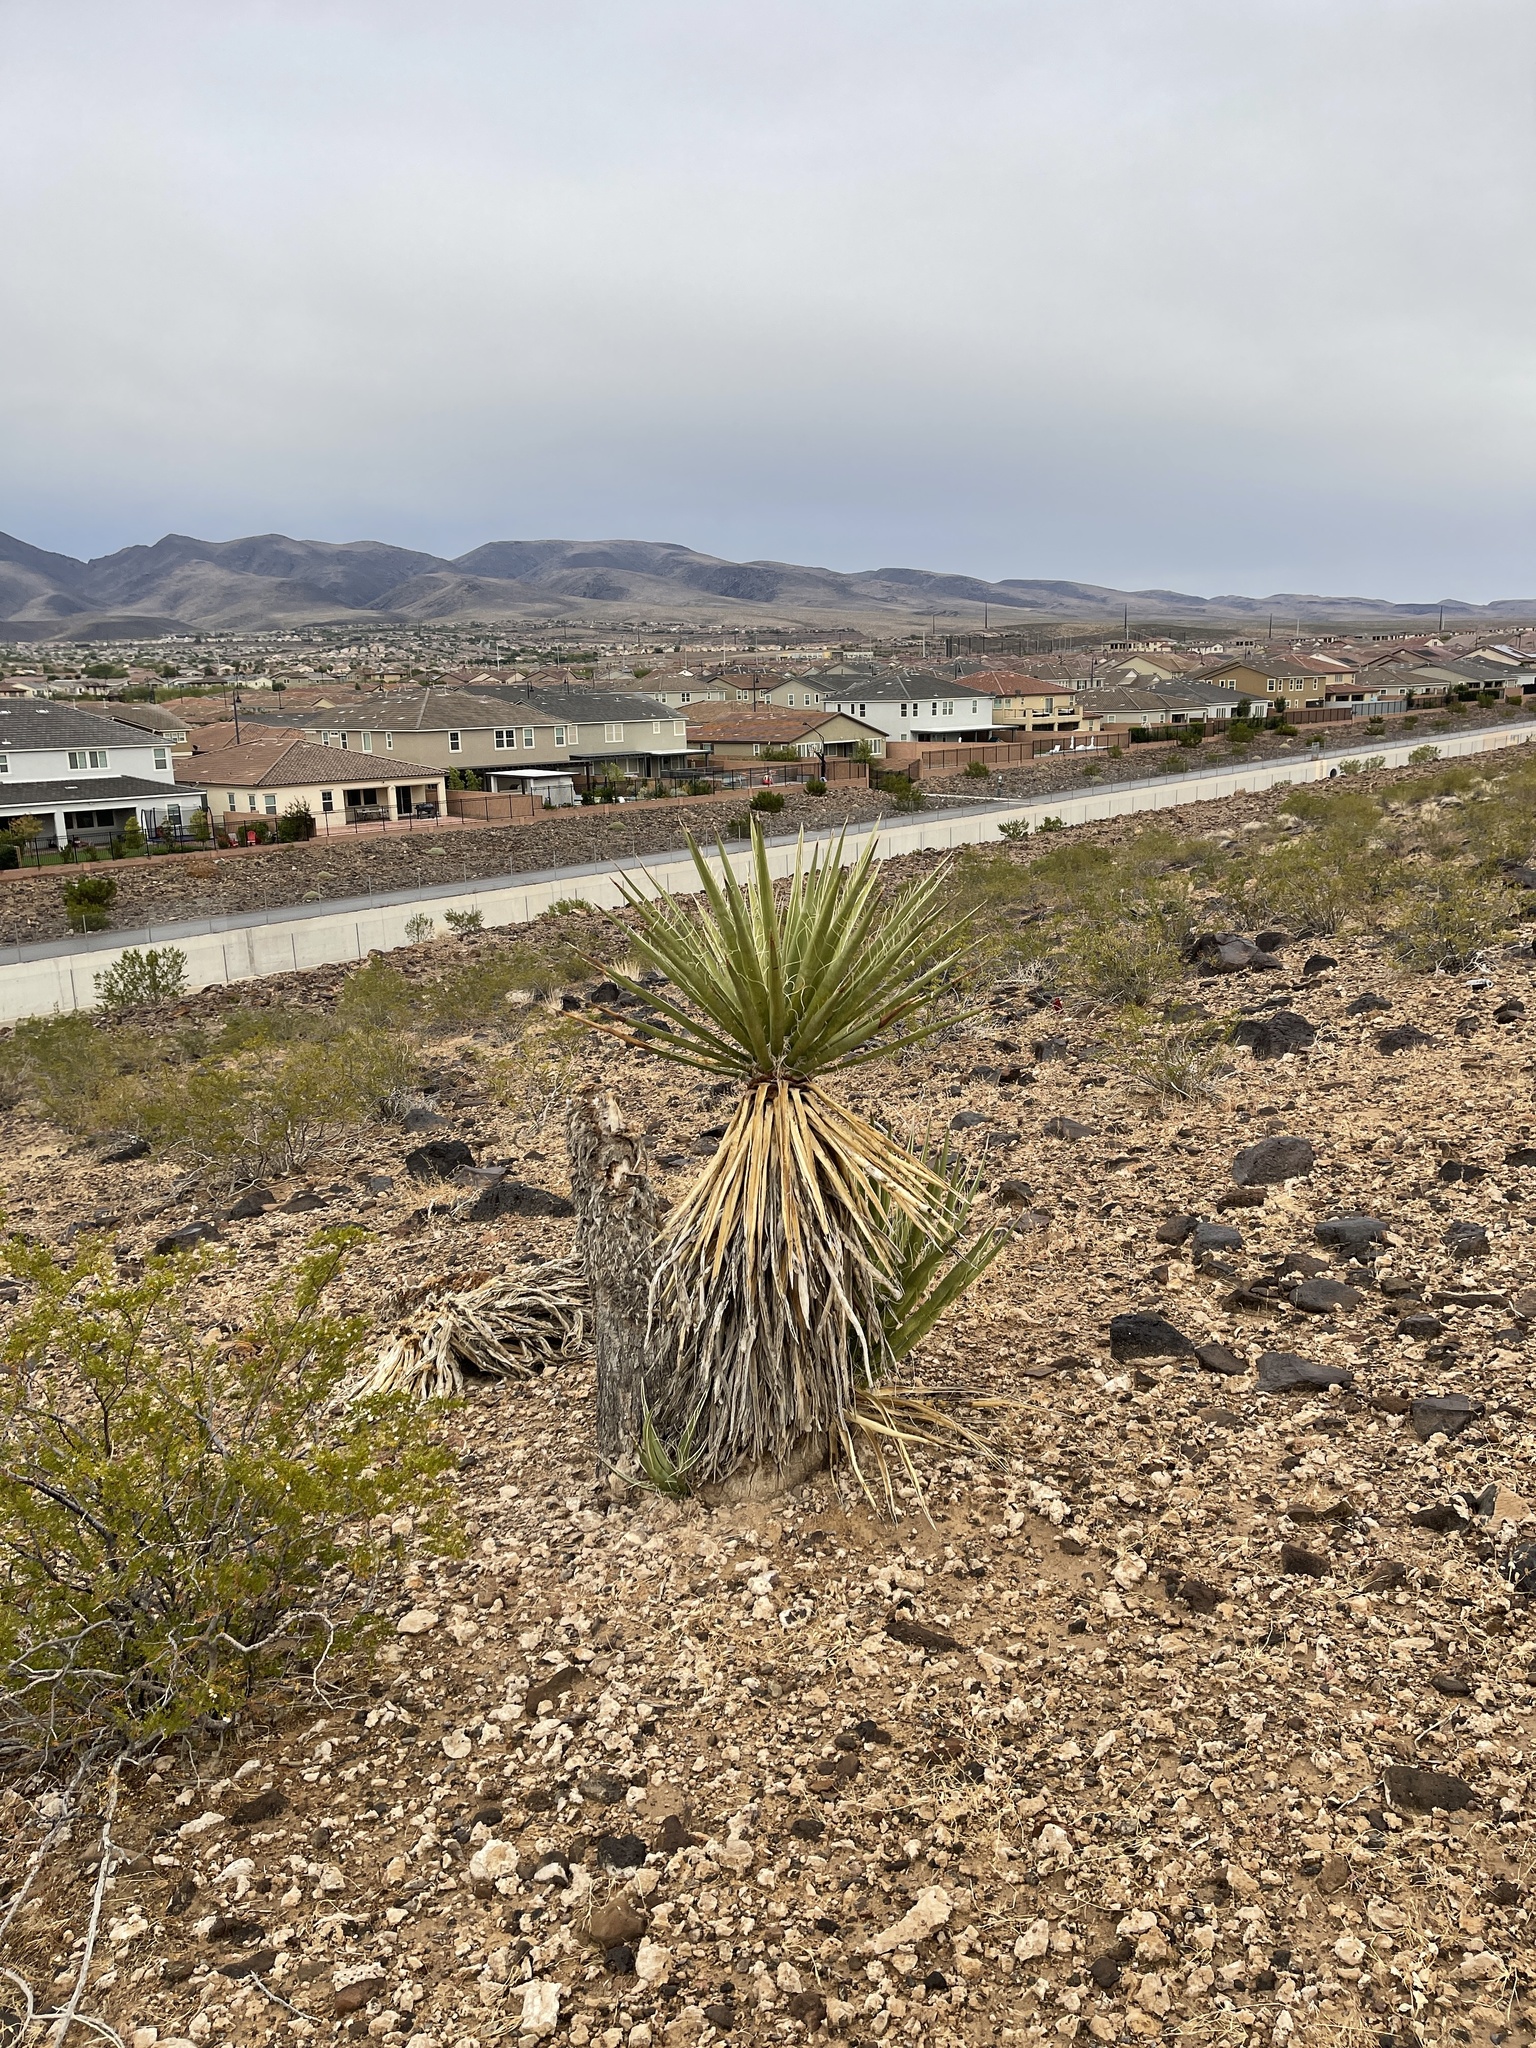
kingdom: Plantae
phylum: Tracheophyta
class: Liliopsida
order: Asparagales
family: Asparagaceae
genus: Yucca
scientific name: Yucca schidigera
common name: Mojave yucca
